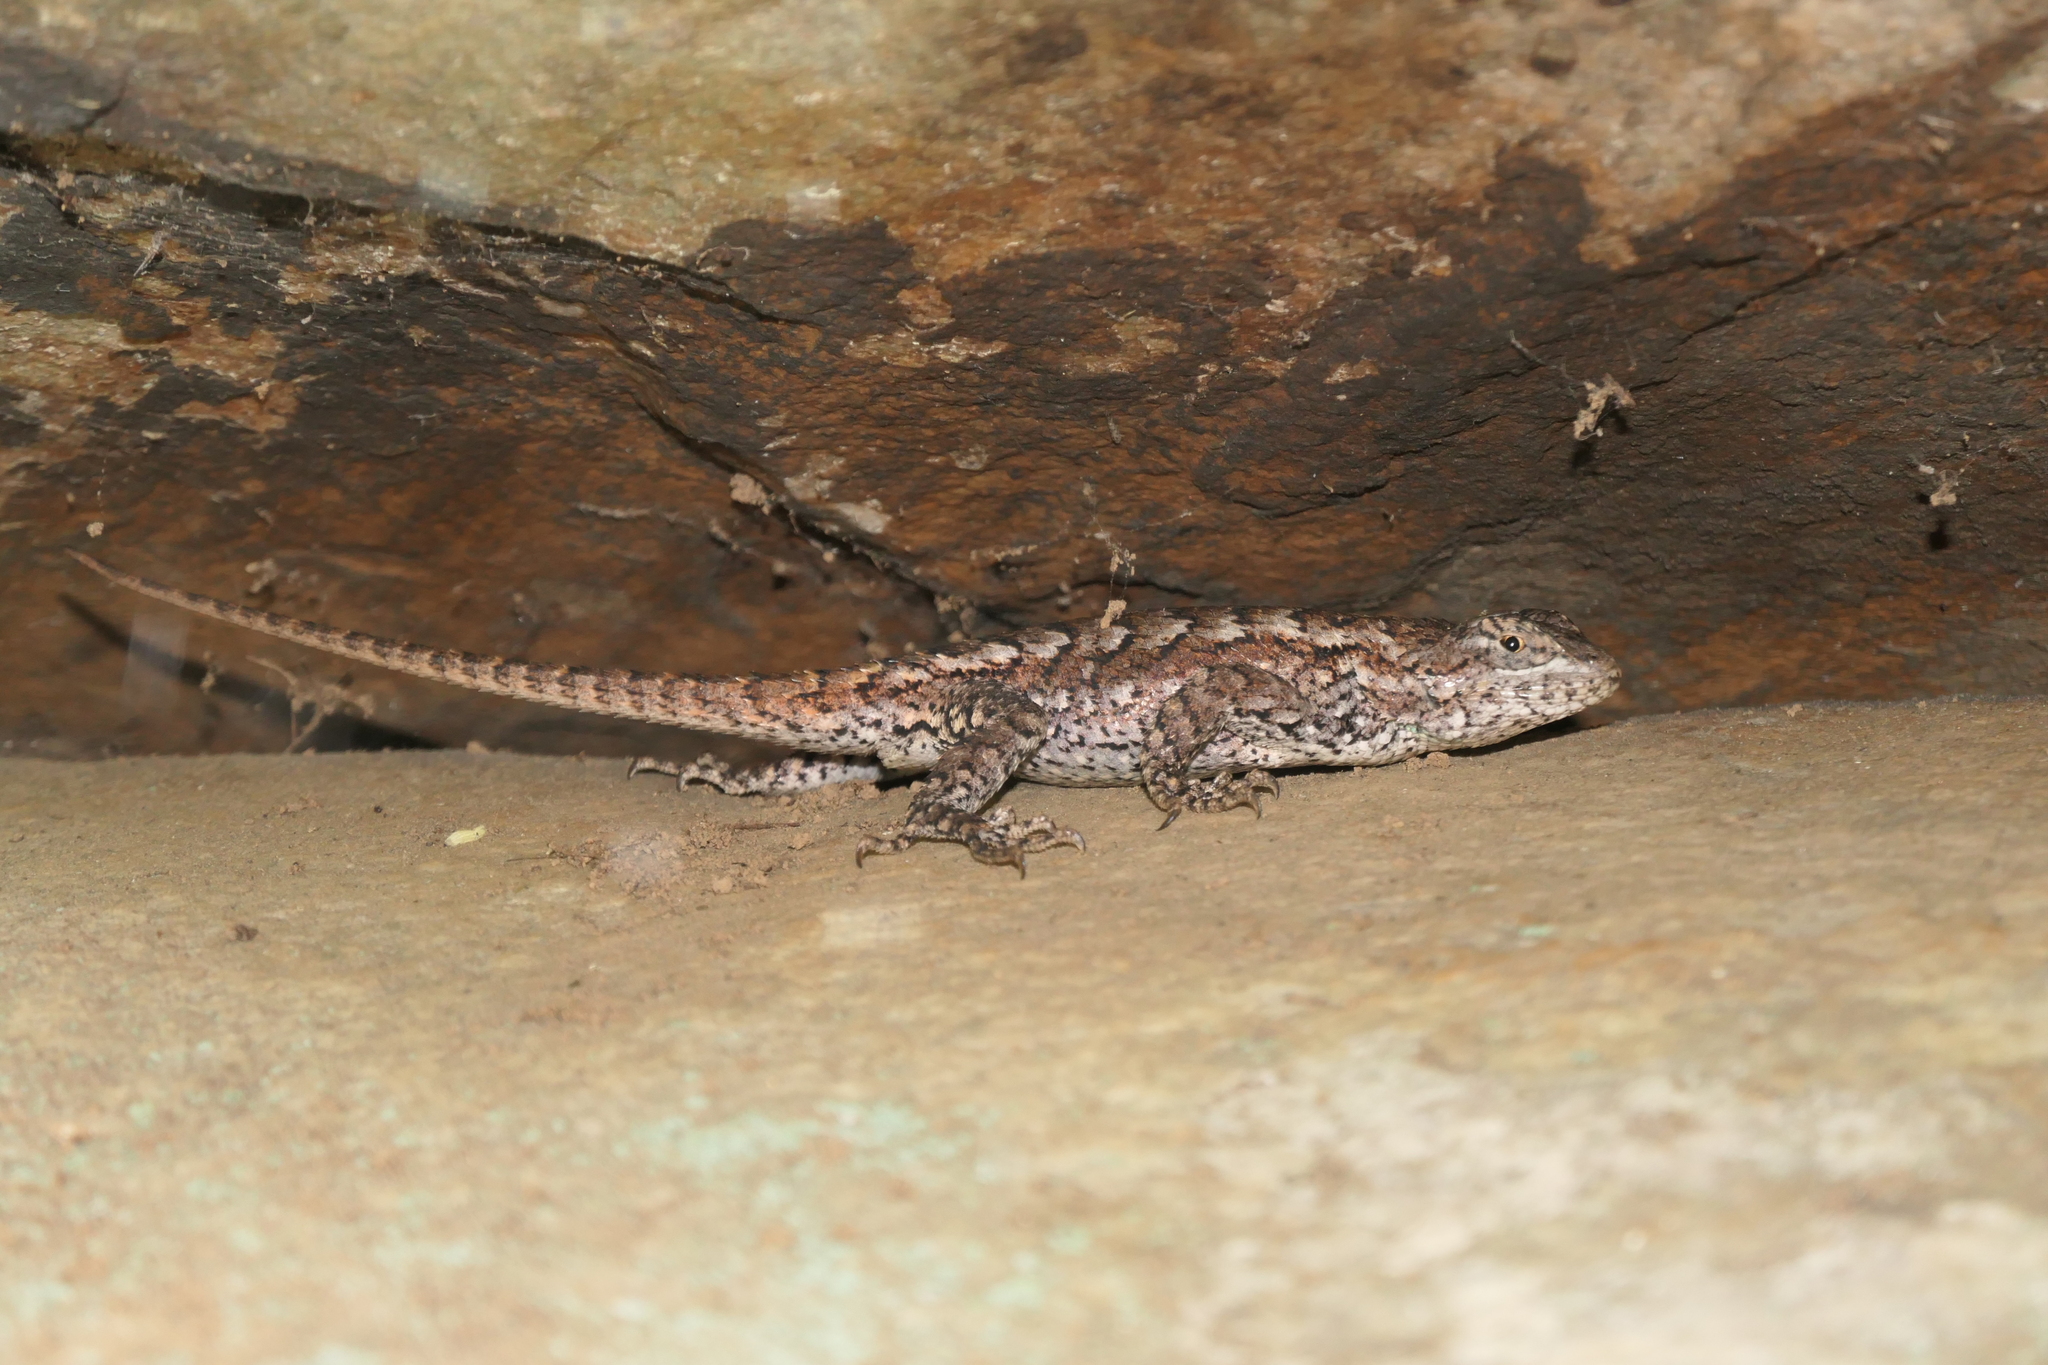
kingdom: Animalia
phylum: Chordata
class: Squamata
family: Phrynosomatidae
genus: Sceloporus
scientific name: Sceloporus undulatus
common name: Eastern fence lizard
